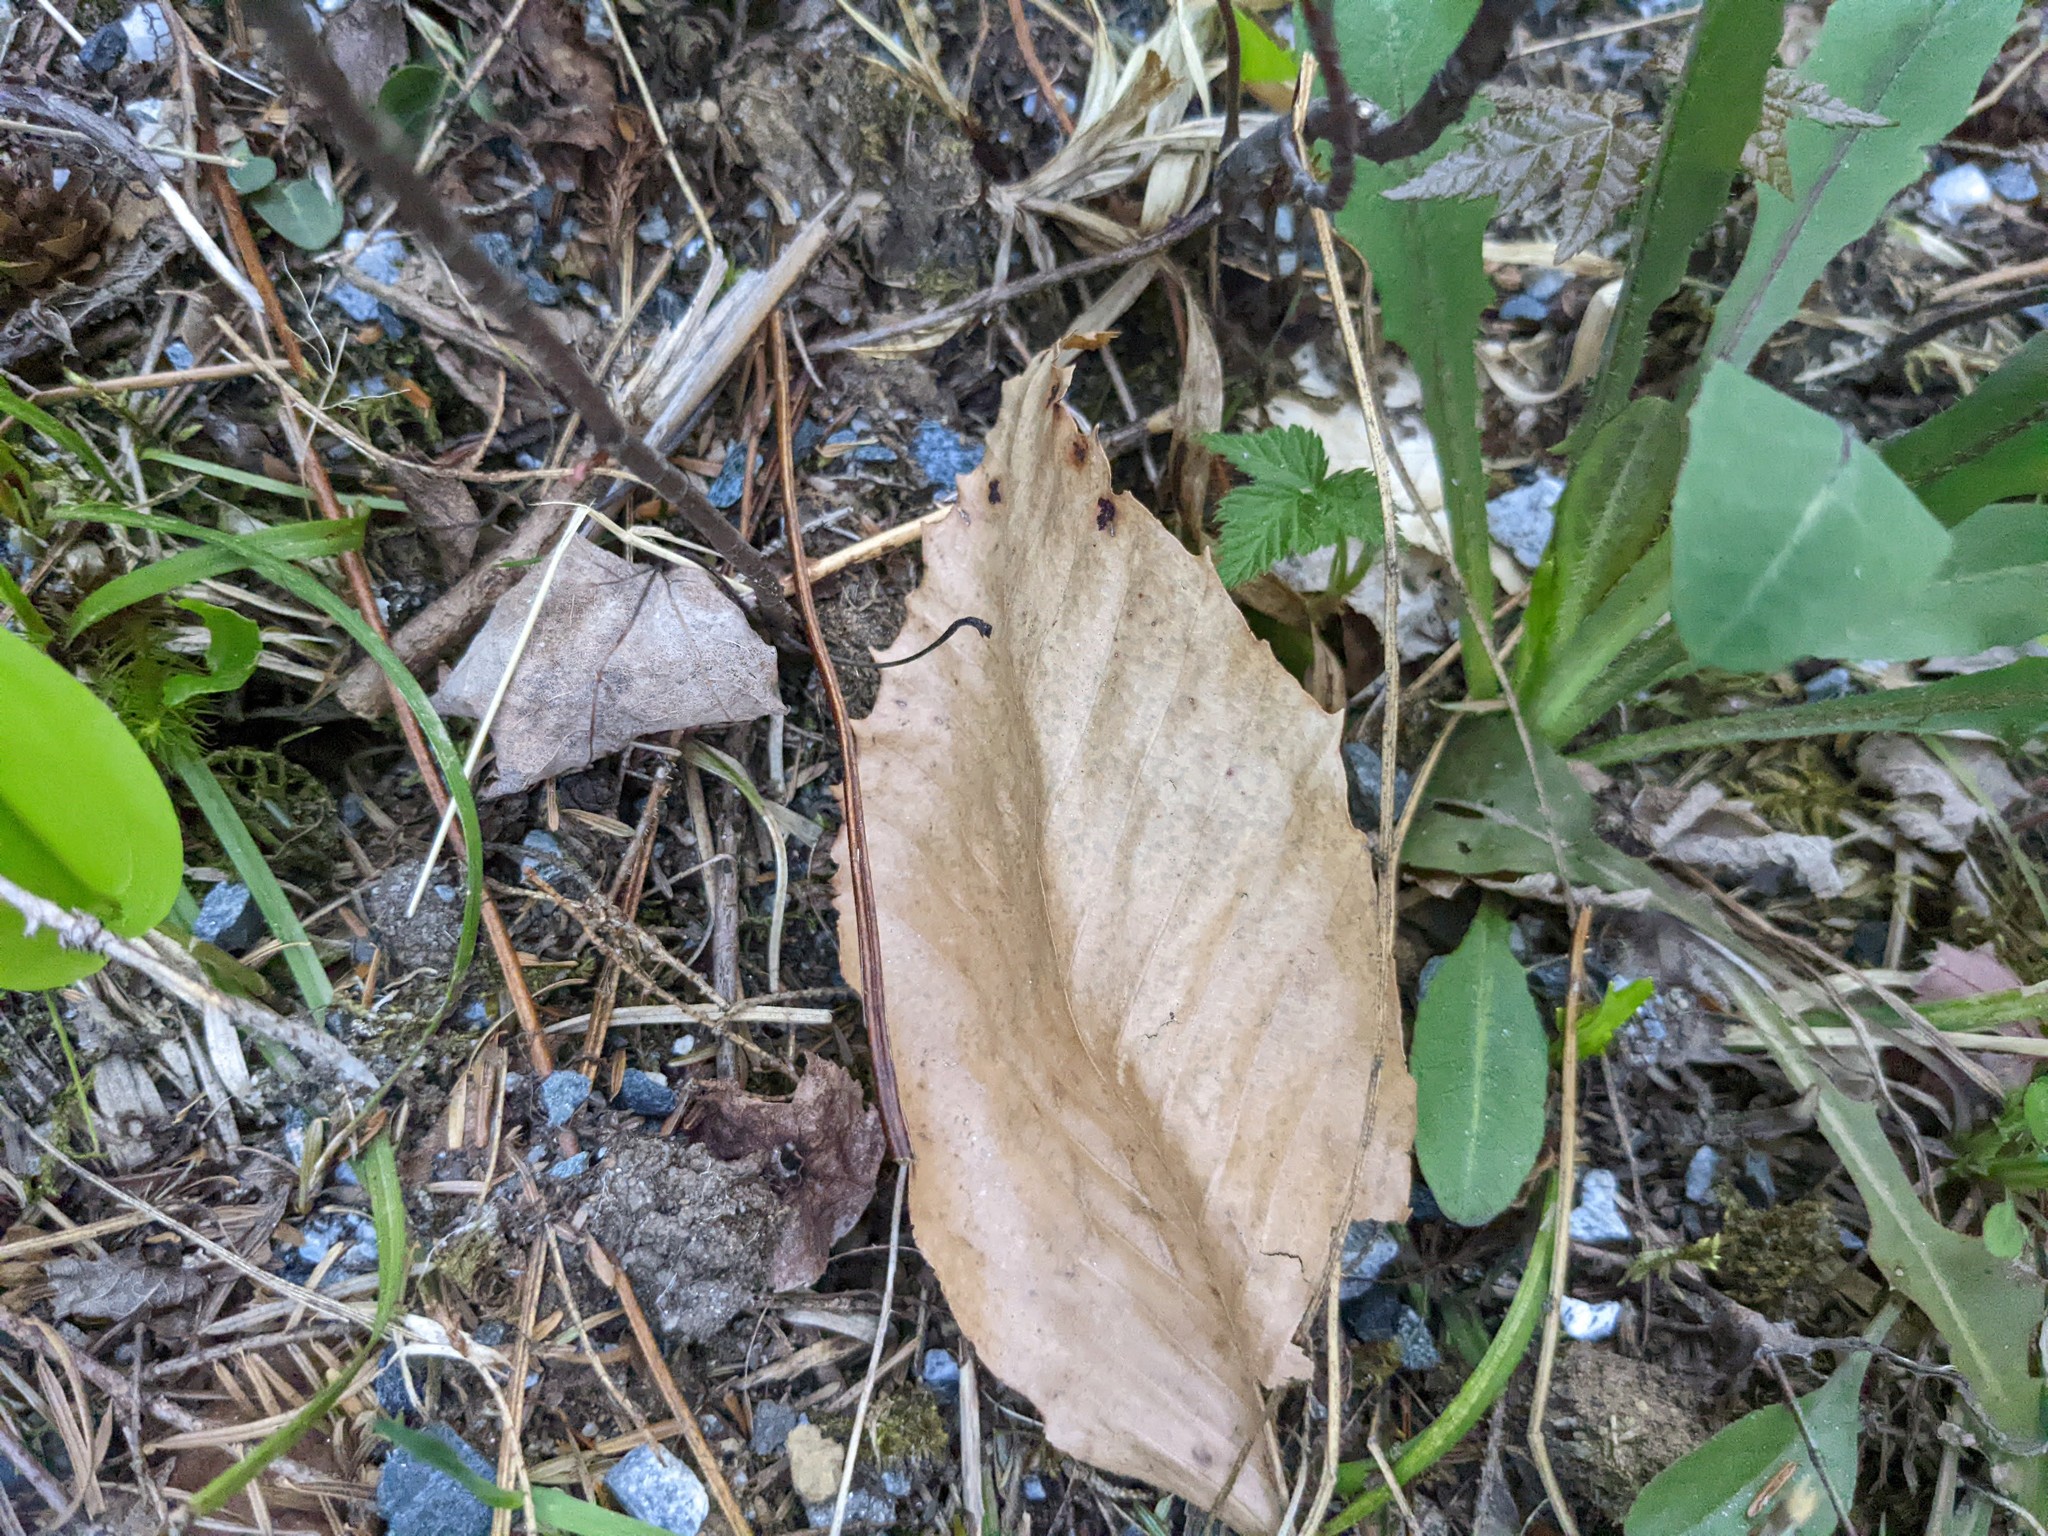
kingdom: Plantae
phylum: Tracheophyta
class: Magnoliopsida
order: Fagales
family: Fagaceae
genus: Fagus
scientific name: Fagus grandifolia
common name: American beech
